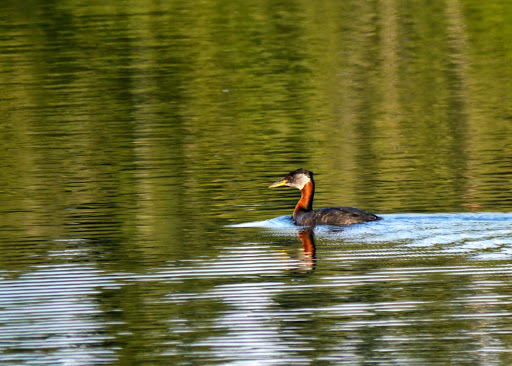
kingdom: Animalia
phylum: Chordata
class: Aves
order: Podicipediformes
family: Podicipedidae
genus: Podiceps
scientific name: Podiceps grisegena
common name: Red-necked grebe
